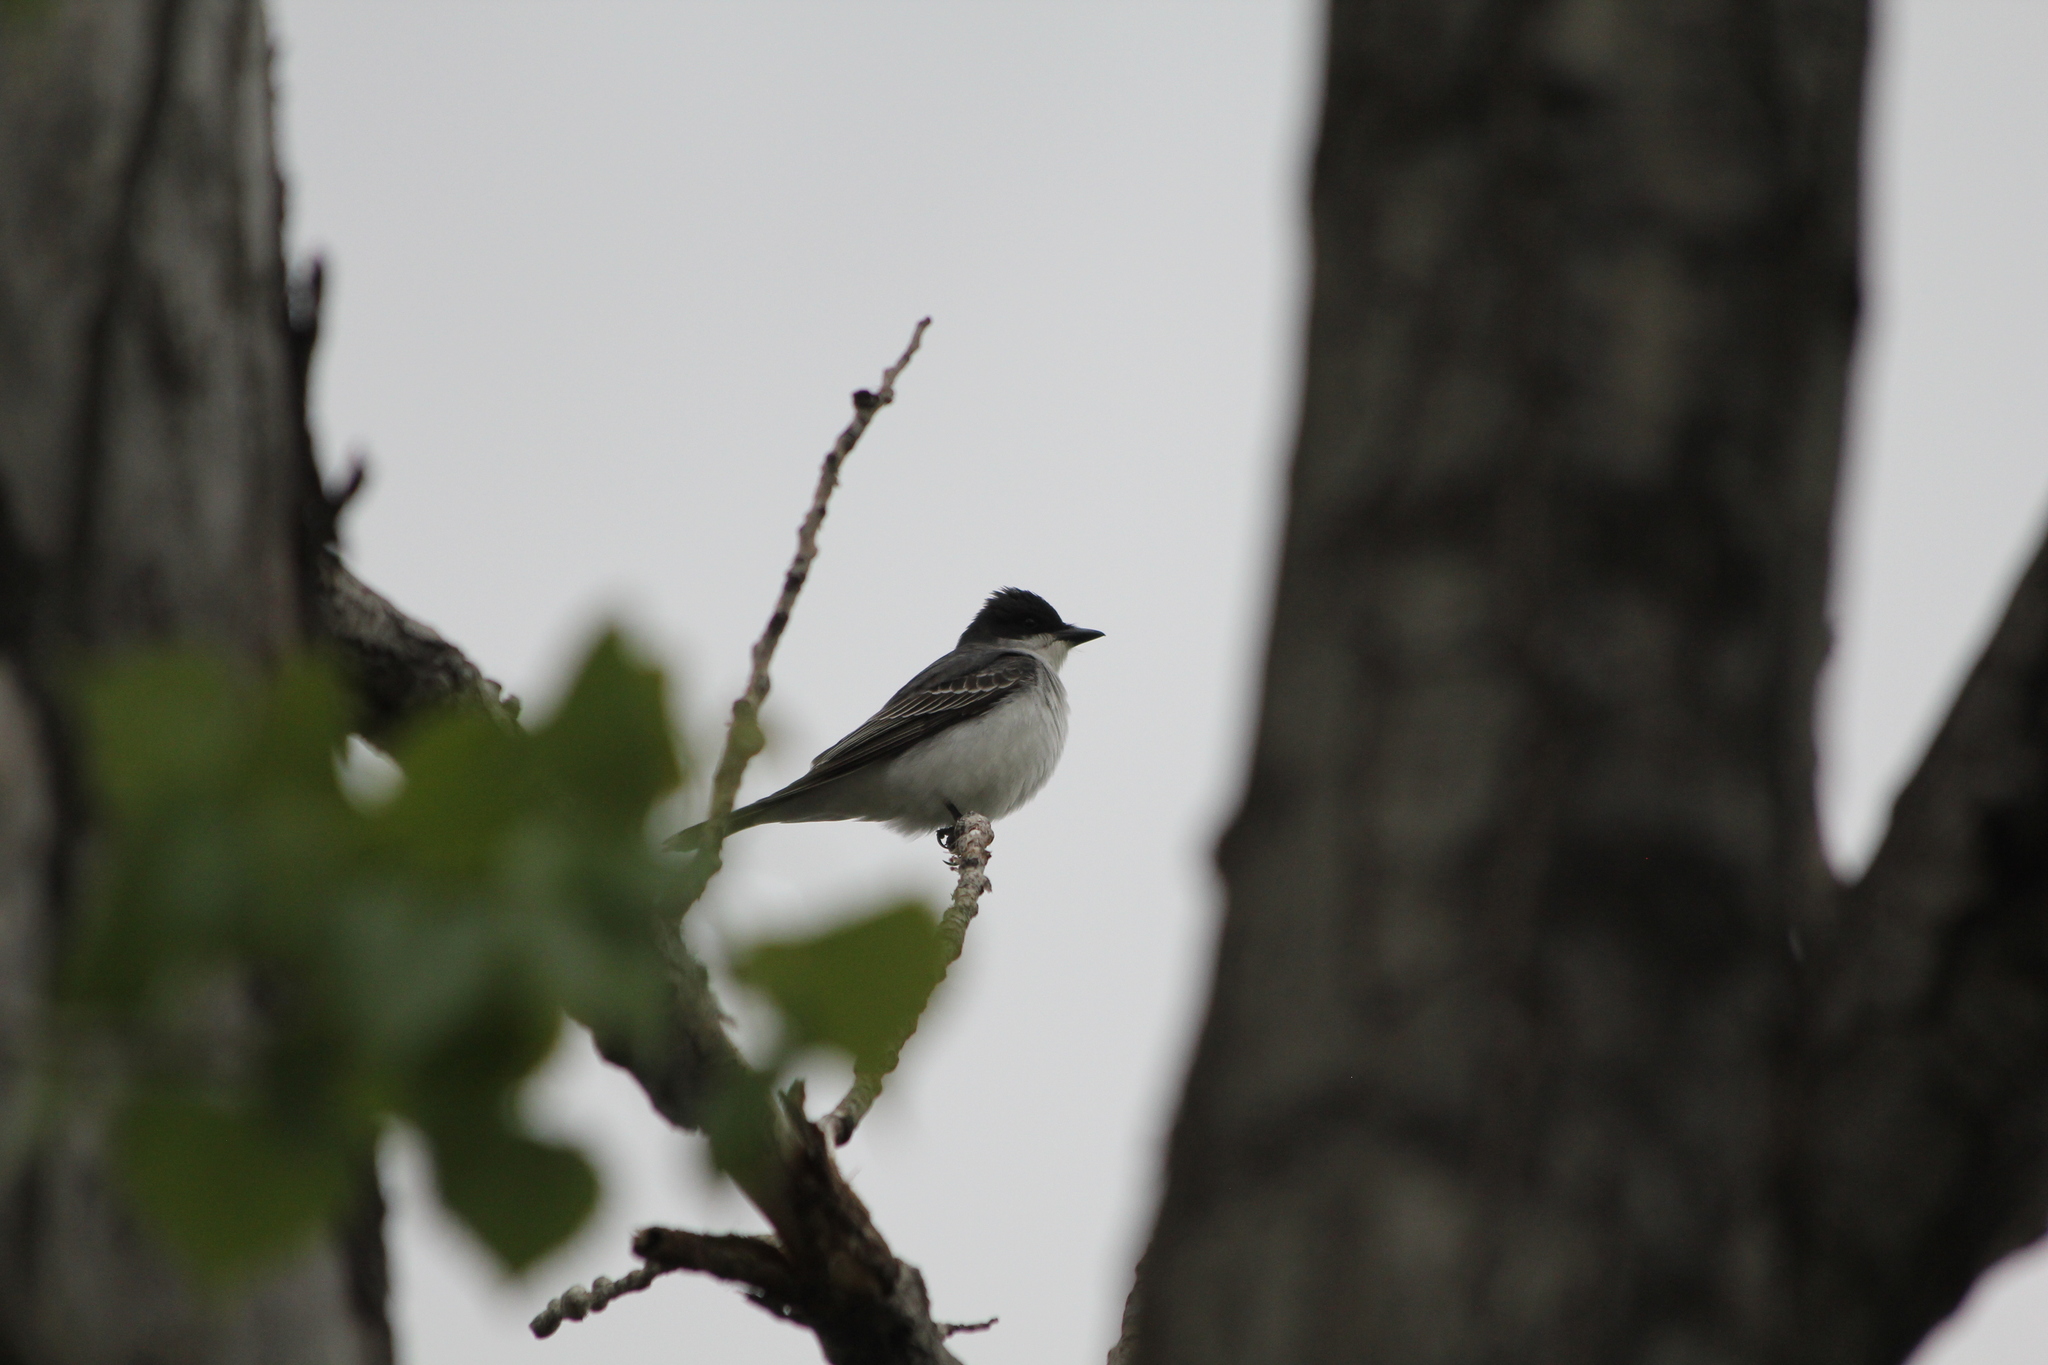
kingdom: Animalia
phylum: Chordata
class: Aves
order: Passeriformes
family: Tyrannidae
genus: Tyrannus
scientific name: Tyrannus tyrannus
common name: Eastern kingbird
